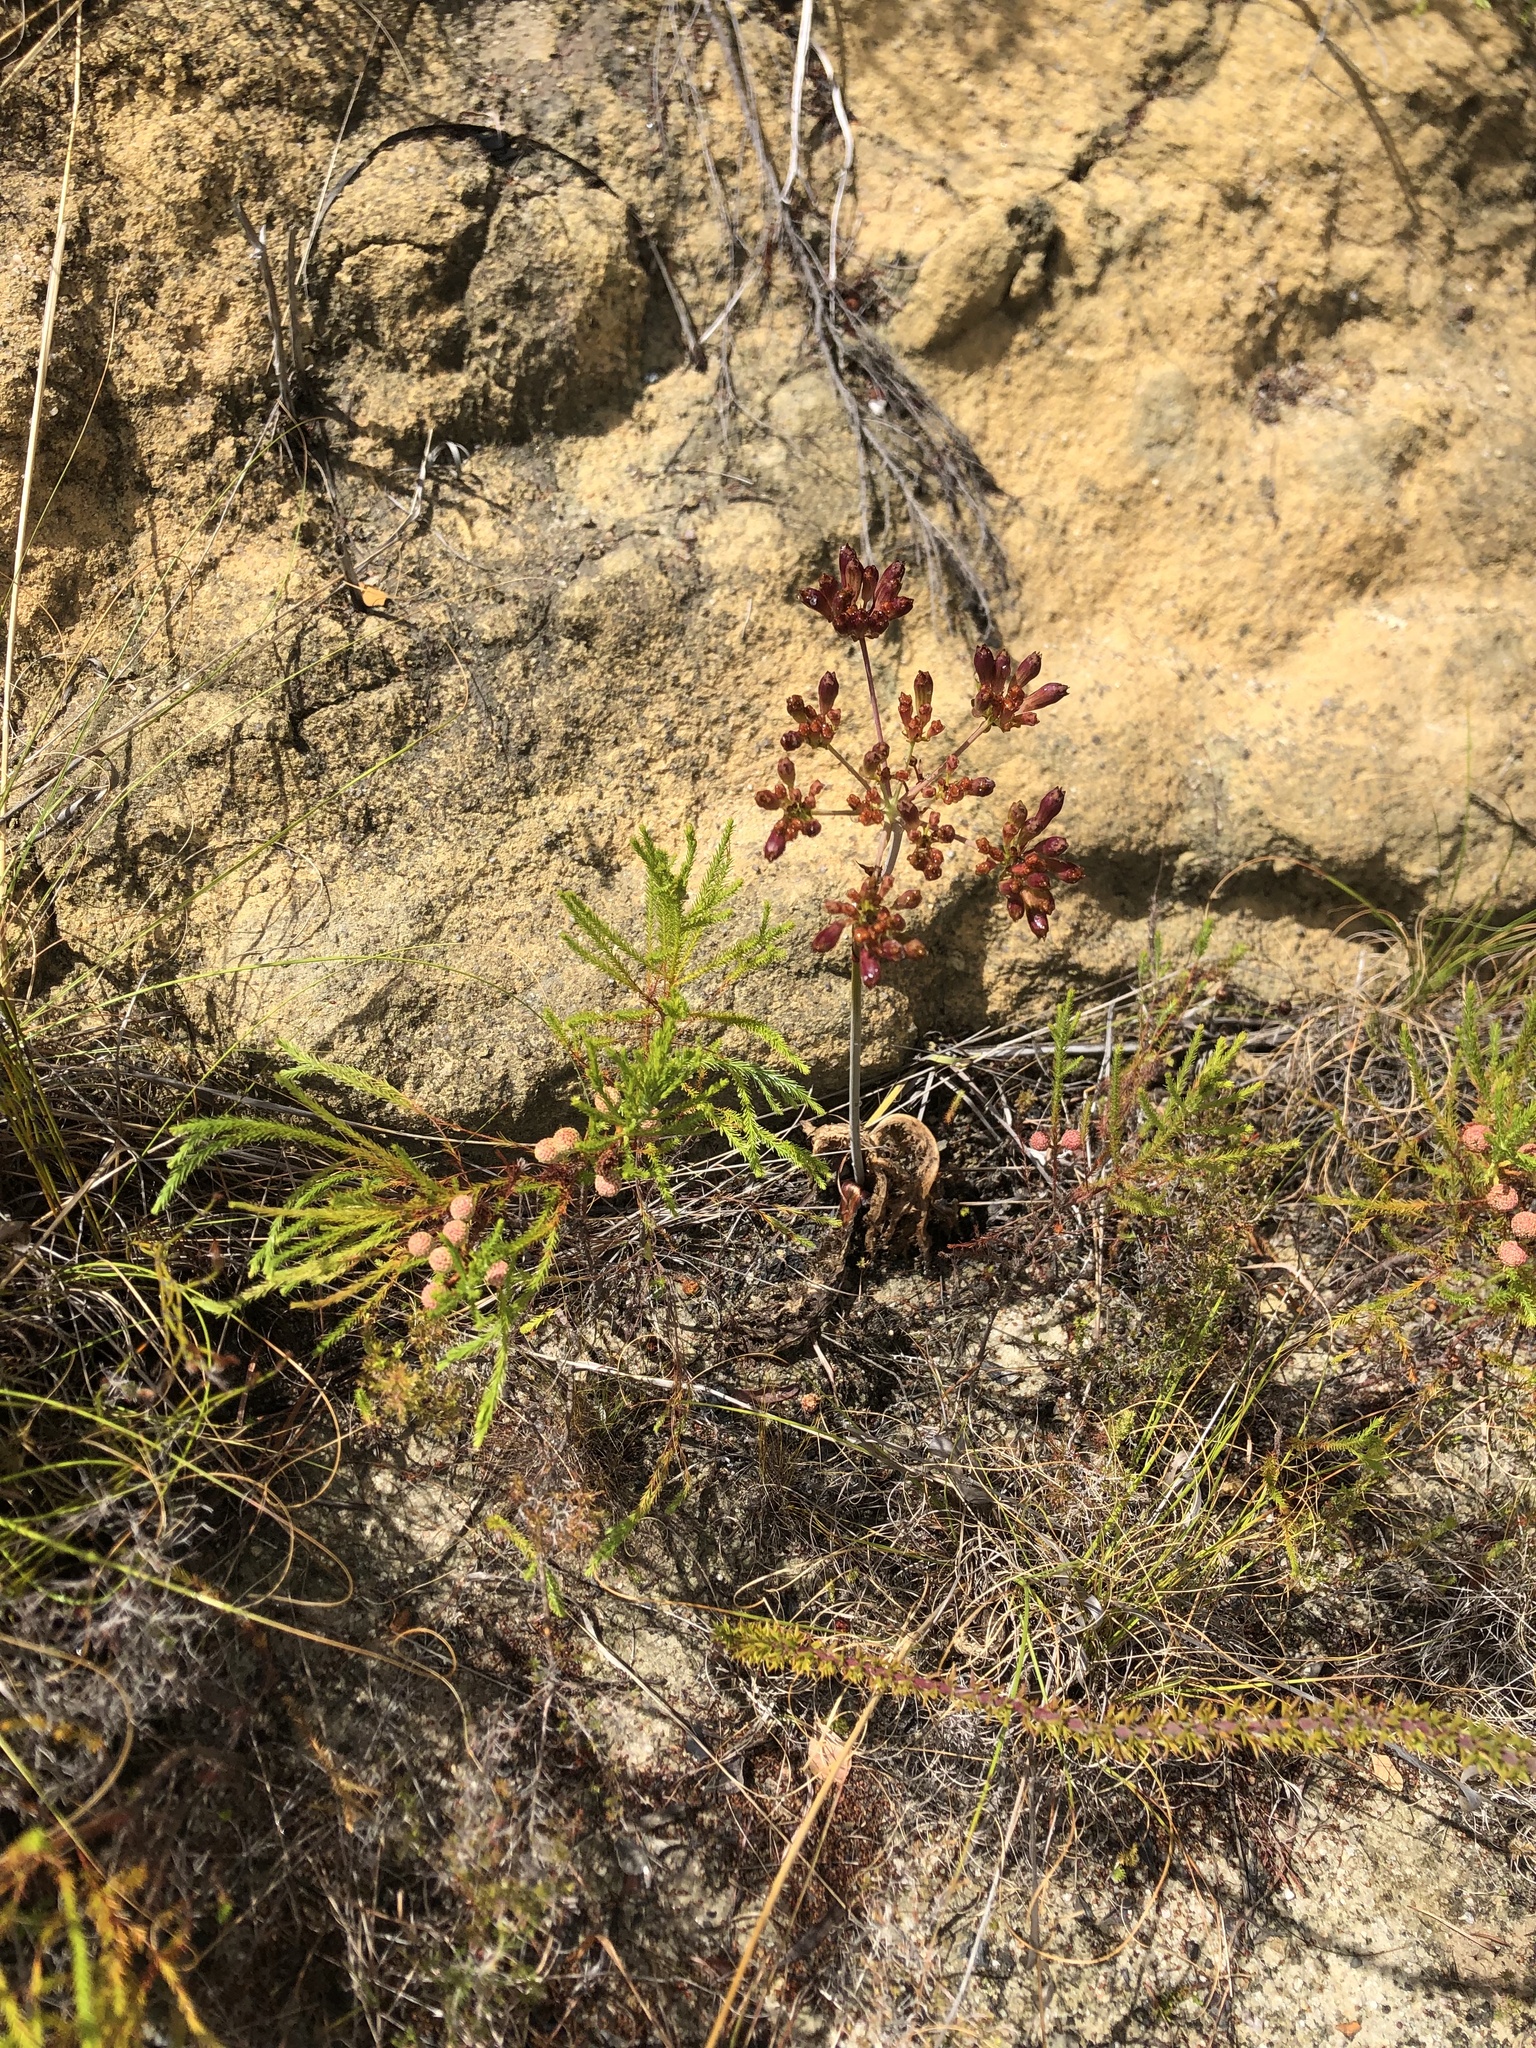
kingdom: Plantae
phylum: Tracheophyta
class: Magnoliopsida
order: Apiales
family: Apiaceae
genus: Lichtensteinia
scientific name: Lichtensteinia lacera
